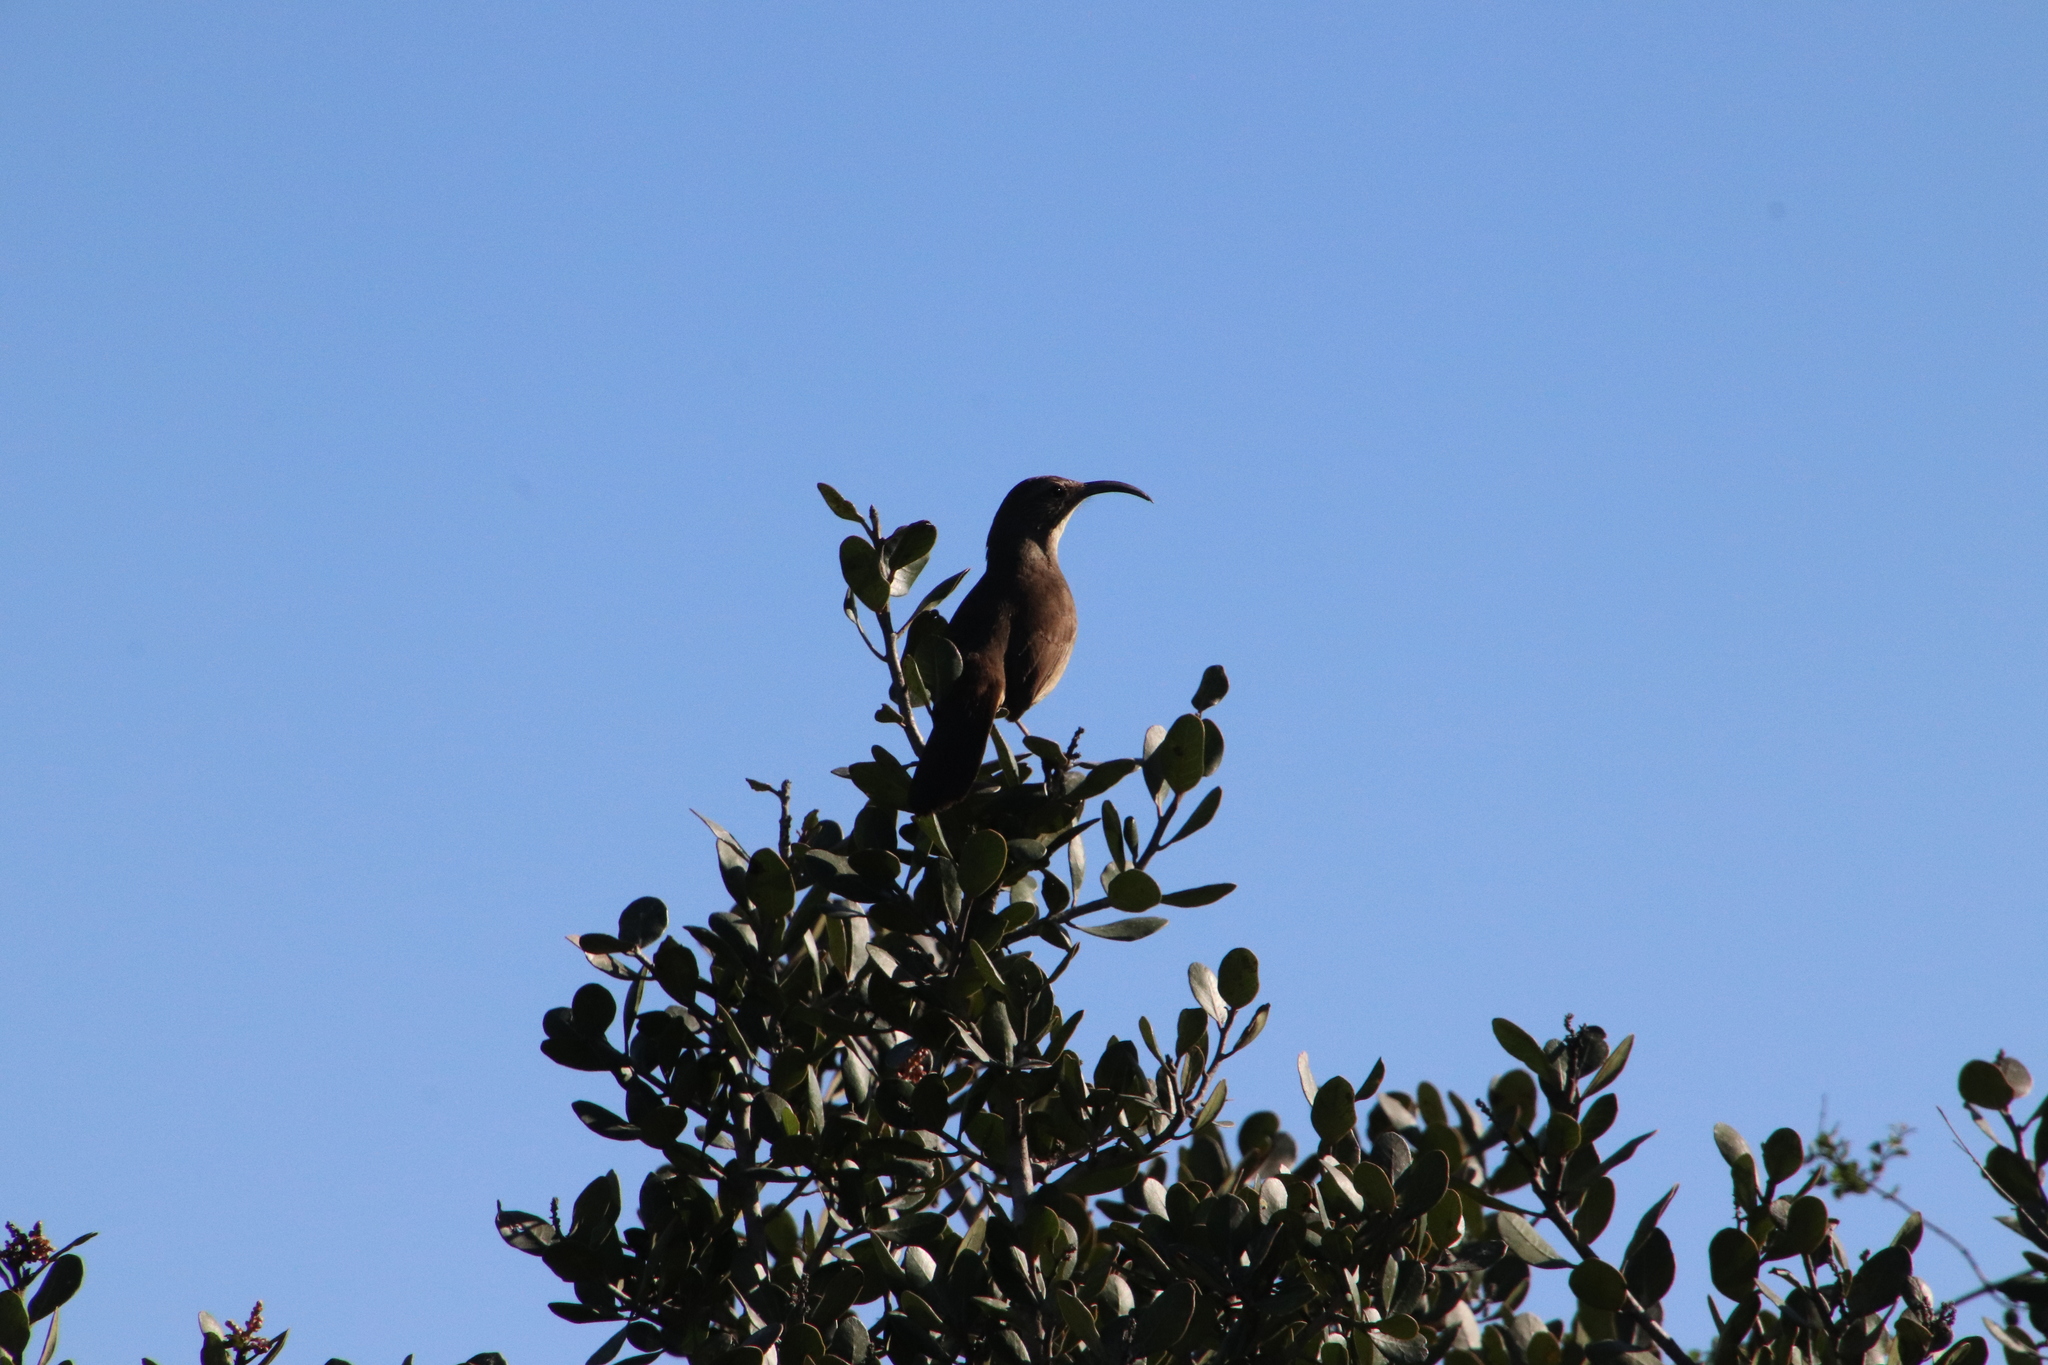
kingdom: Animalia
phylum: Chordata
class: Aves
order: Passeriformes
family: Mimidae
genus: Toxostoma
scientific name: Toxostoma redivivum
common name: California thrasher
